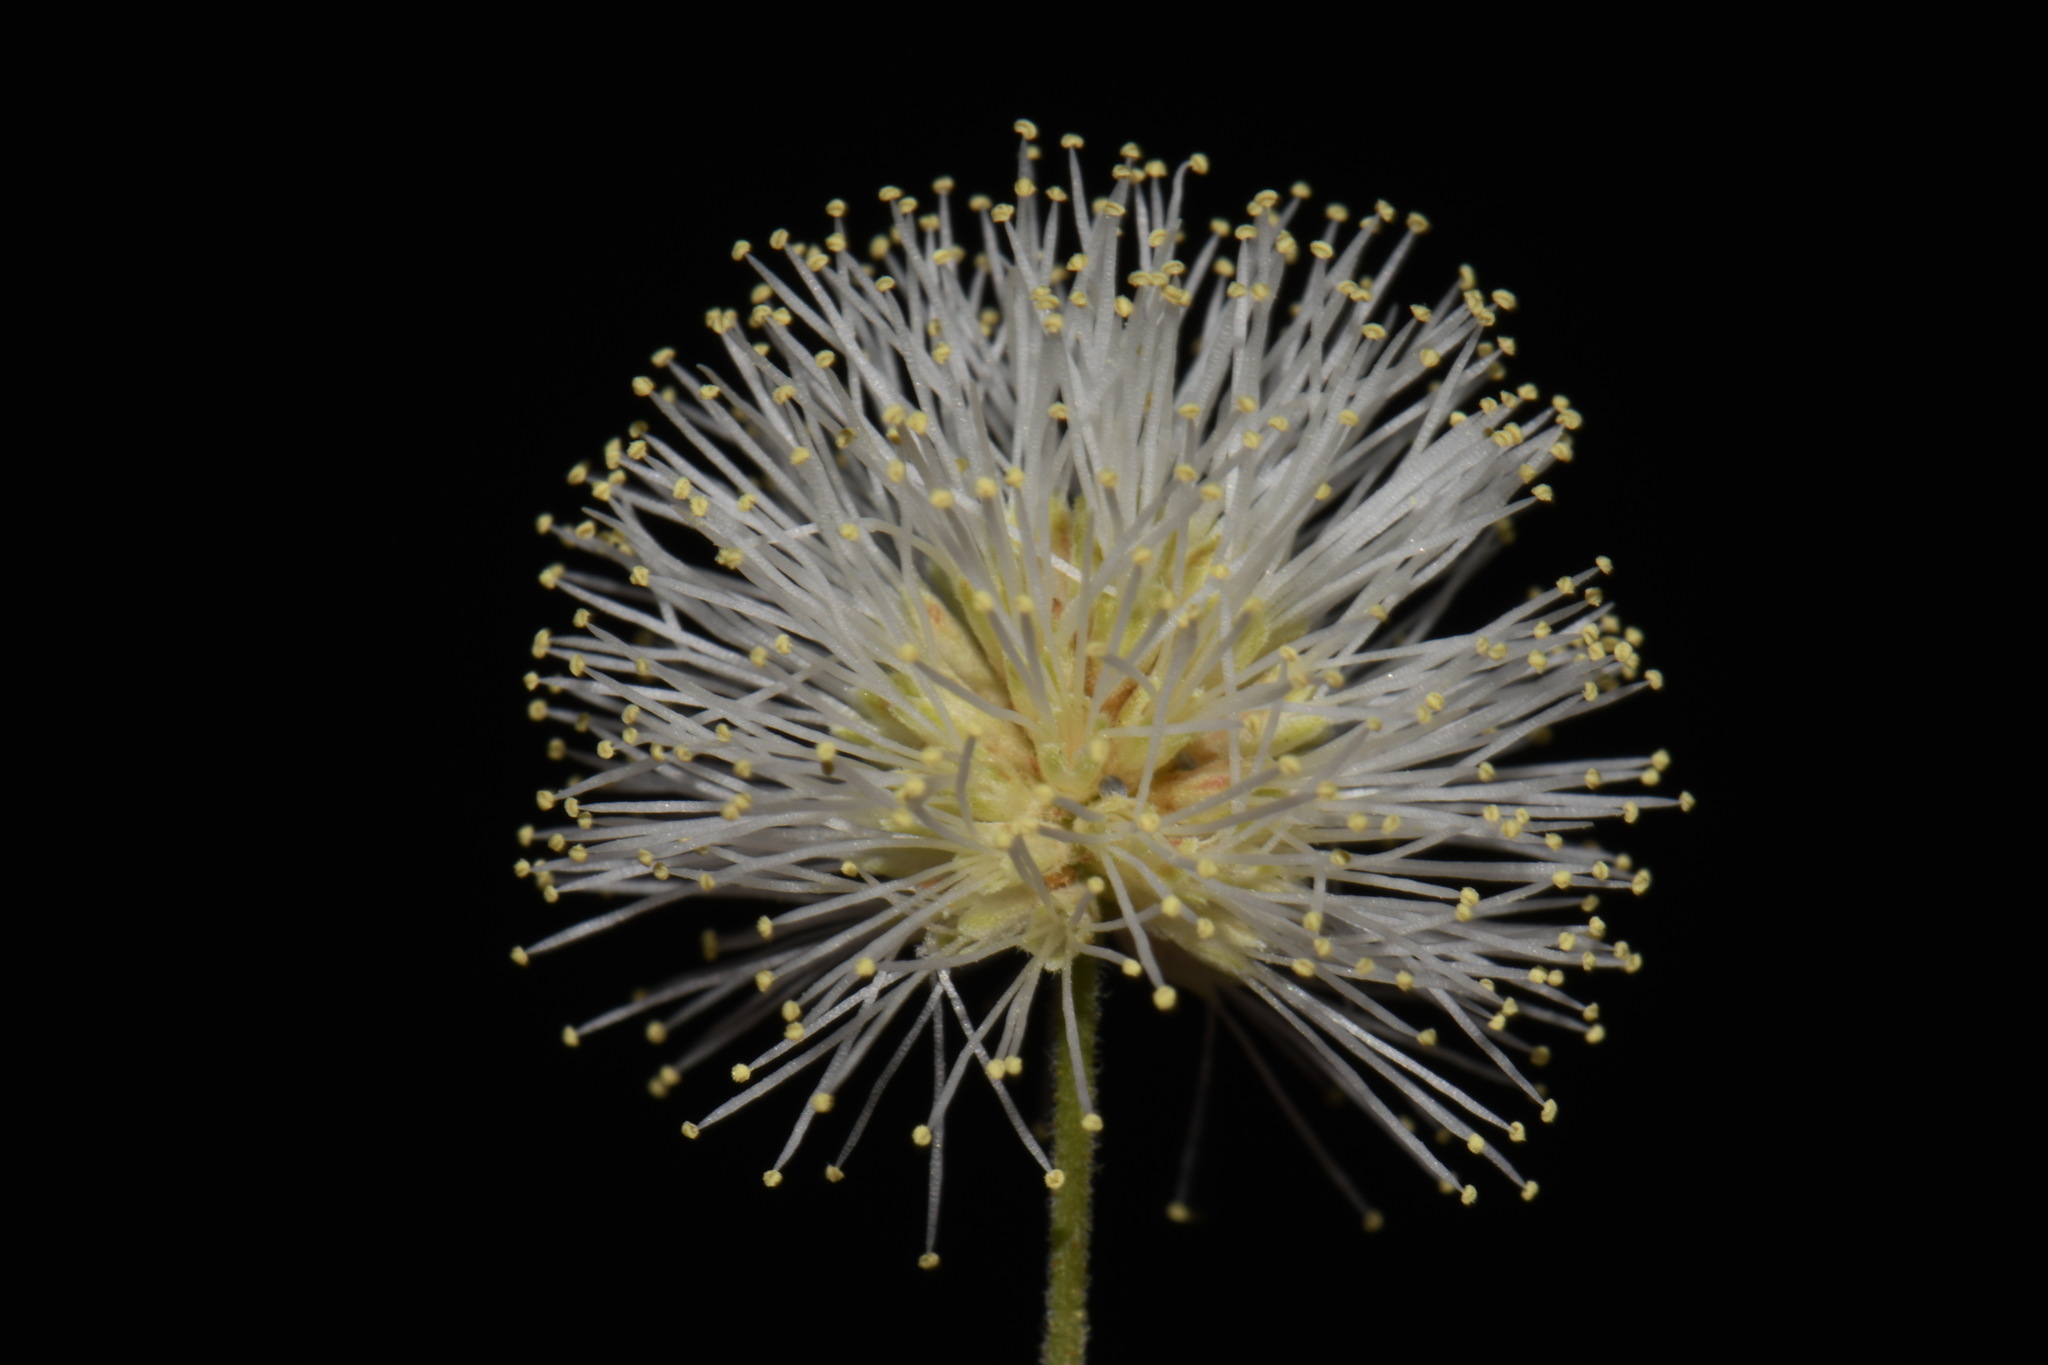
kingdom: Plantae
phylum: Tracheophyta
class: Magnoliopsida
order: Fabales
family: Fabaceae
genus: Mimosa
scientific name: Mimosa biuncifera
